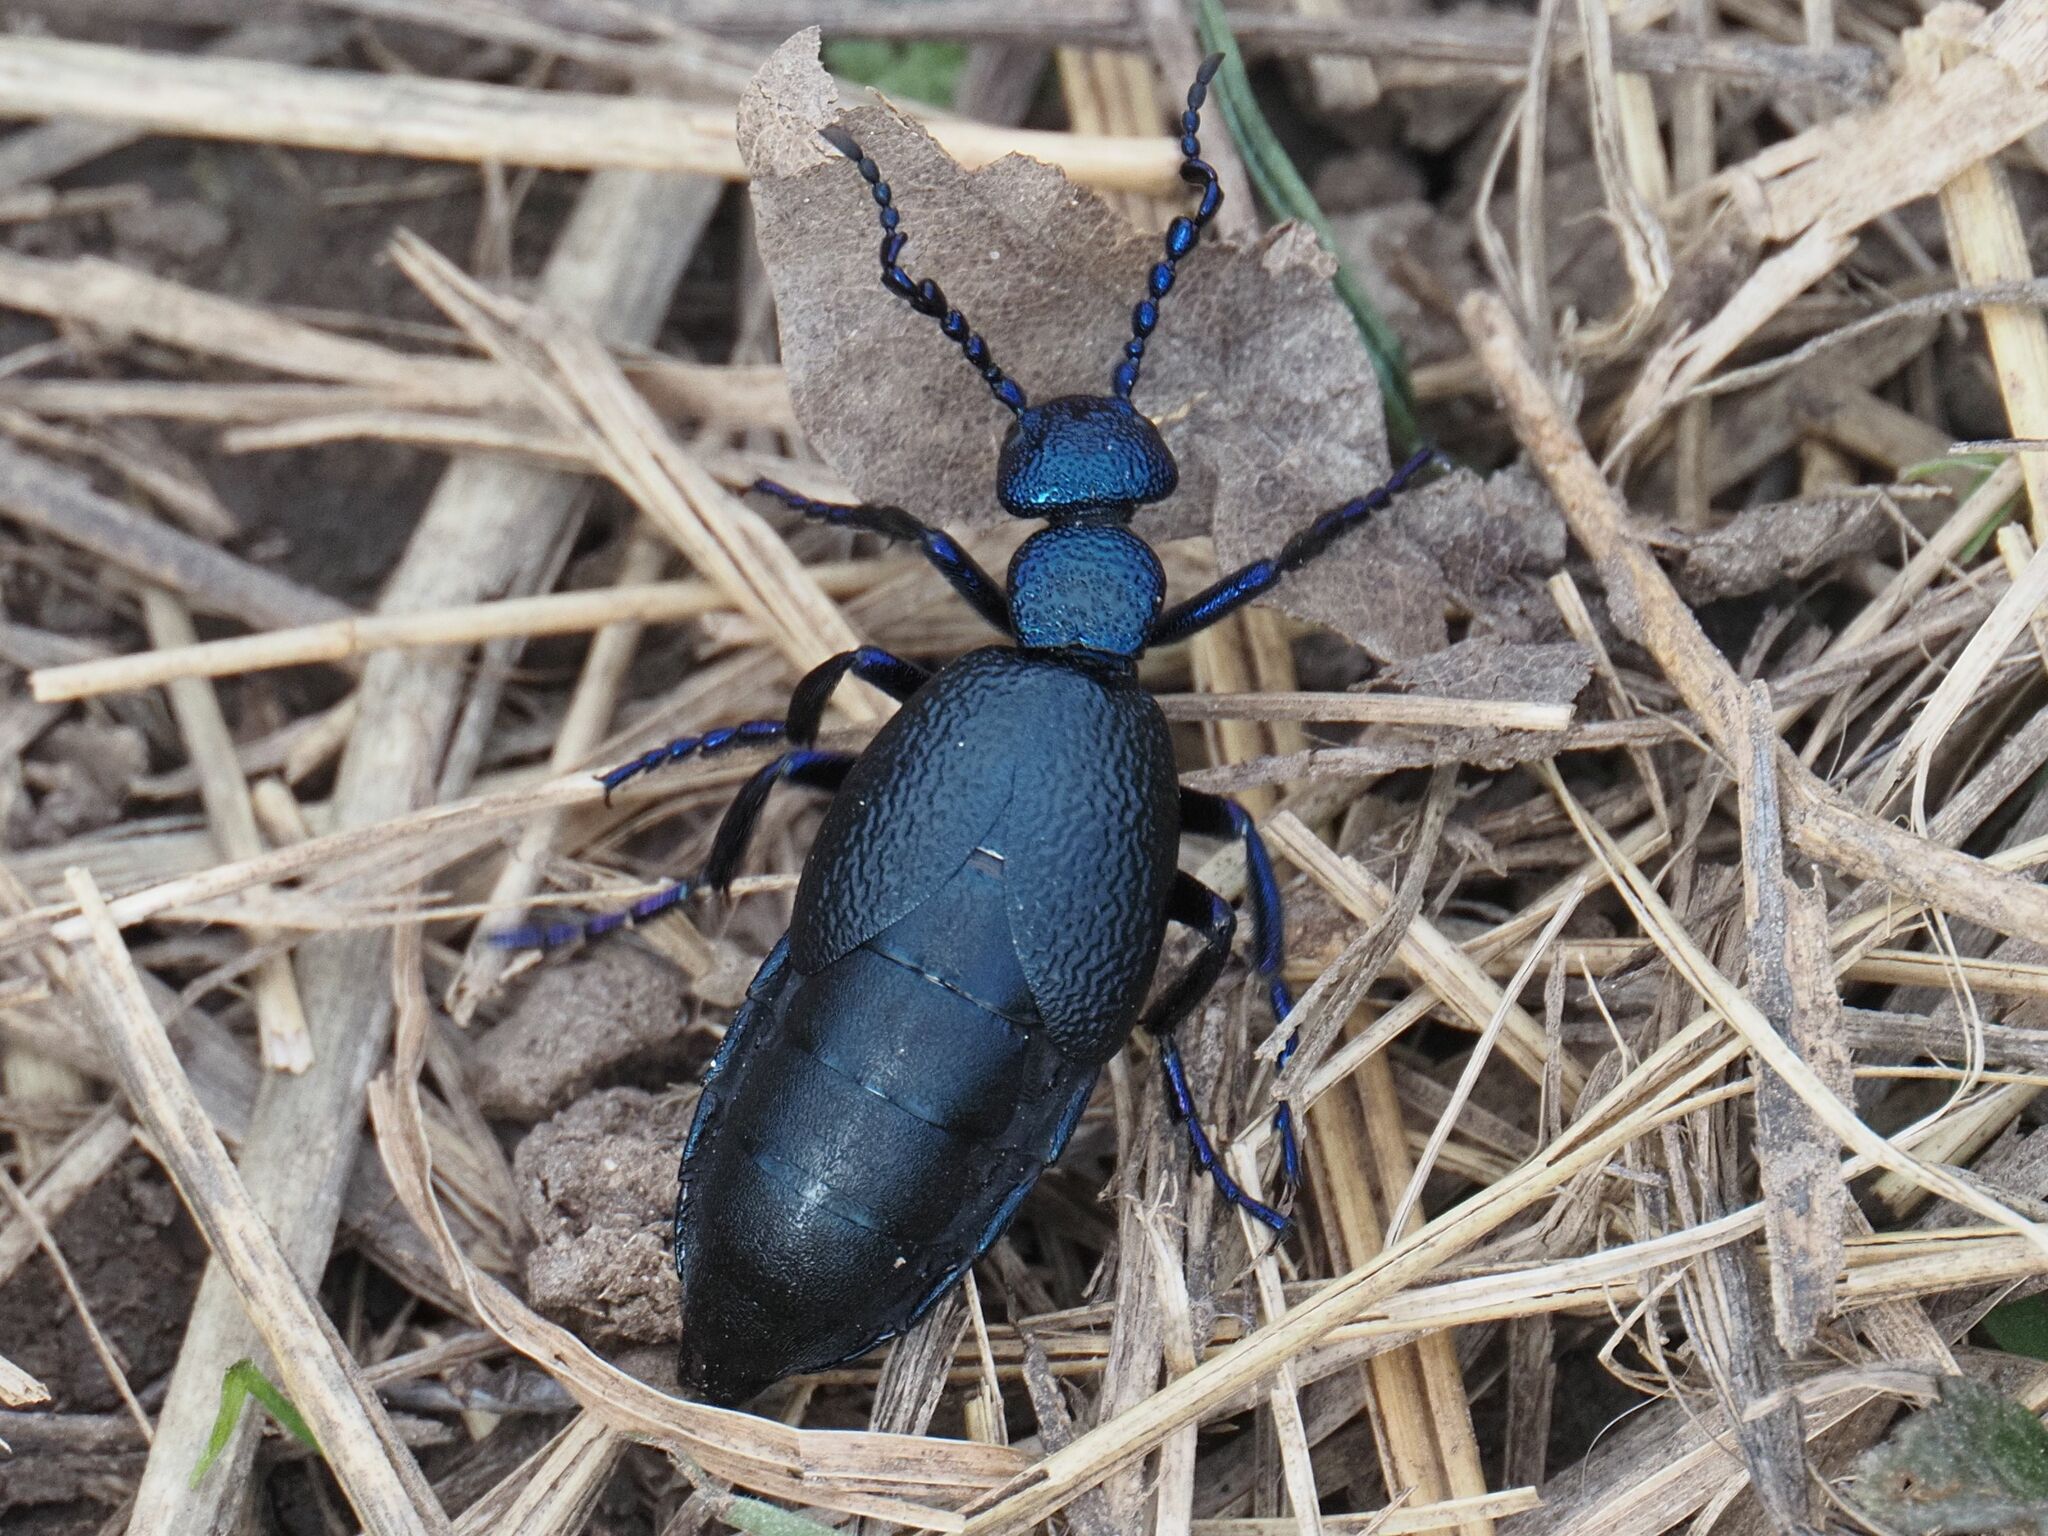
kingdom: Animalia
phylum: Arthropoda
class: Insecta
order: Coleoptera
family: Meloidae
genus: Meloe
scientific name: Meloe proscarabaeus
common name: Black oil-beetle
